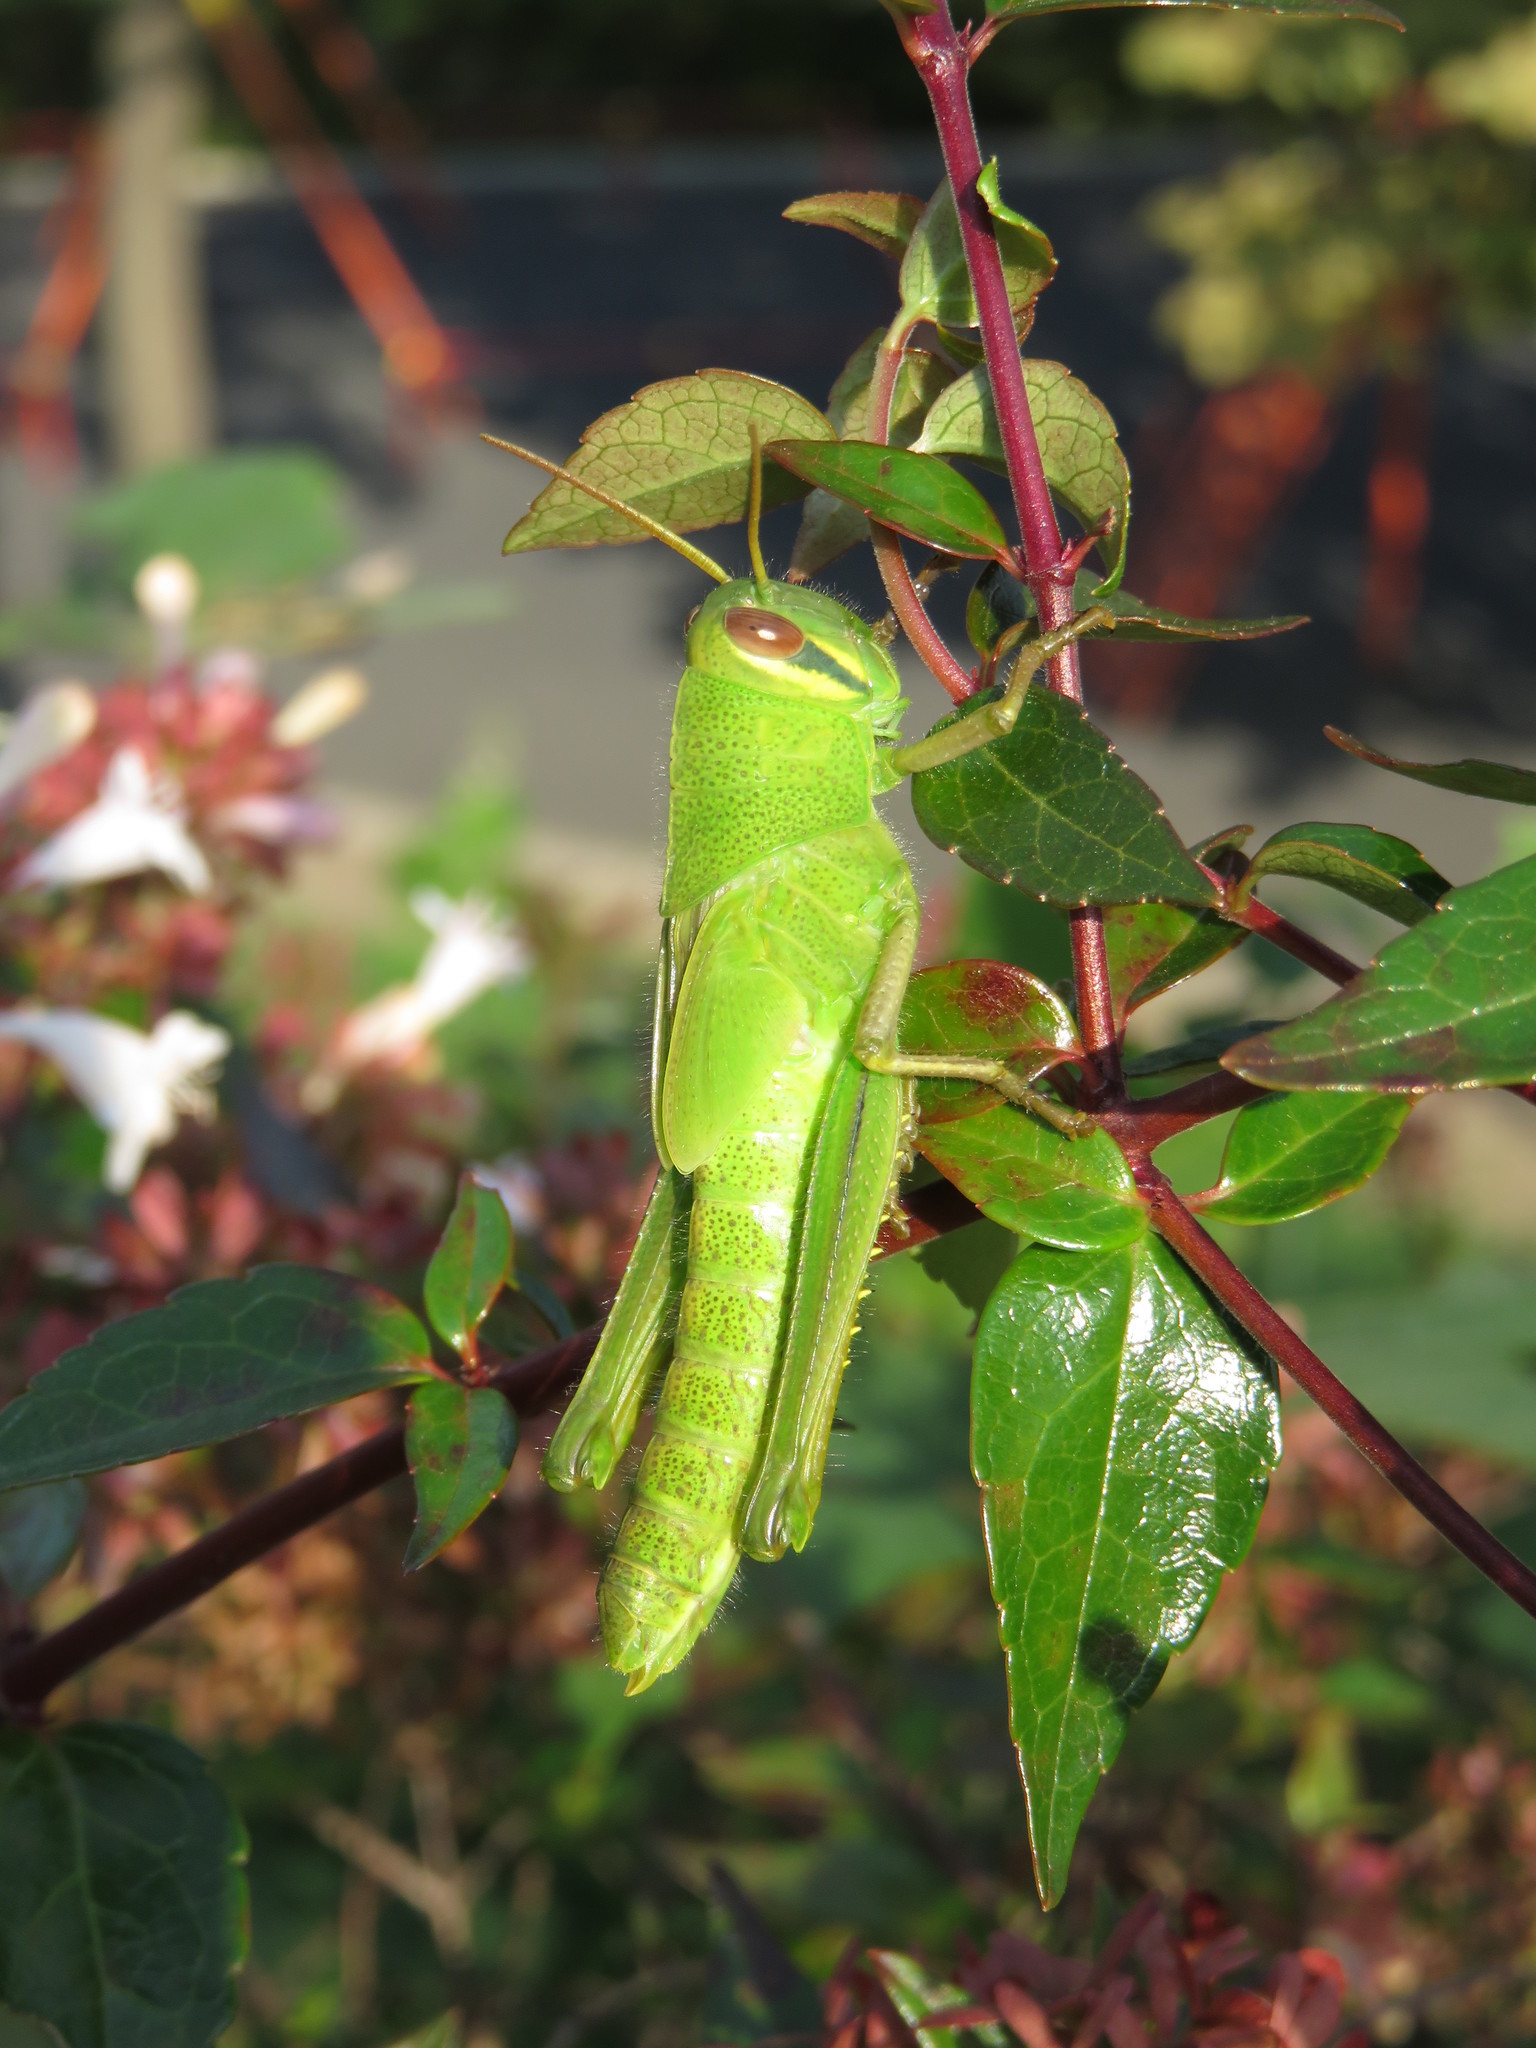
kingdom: Animalia
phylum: Arthropoda
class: Insecta
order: Orthoptera
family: Acrididae
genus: Patanga
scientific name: Patanga japonica
